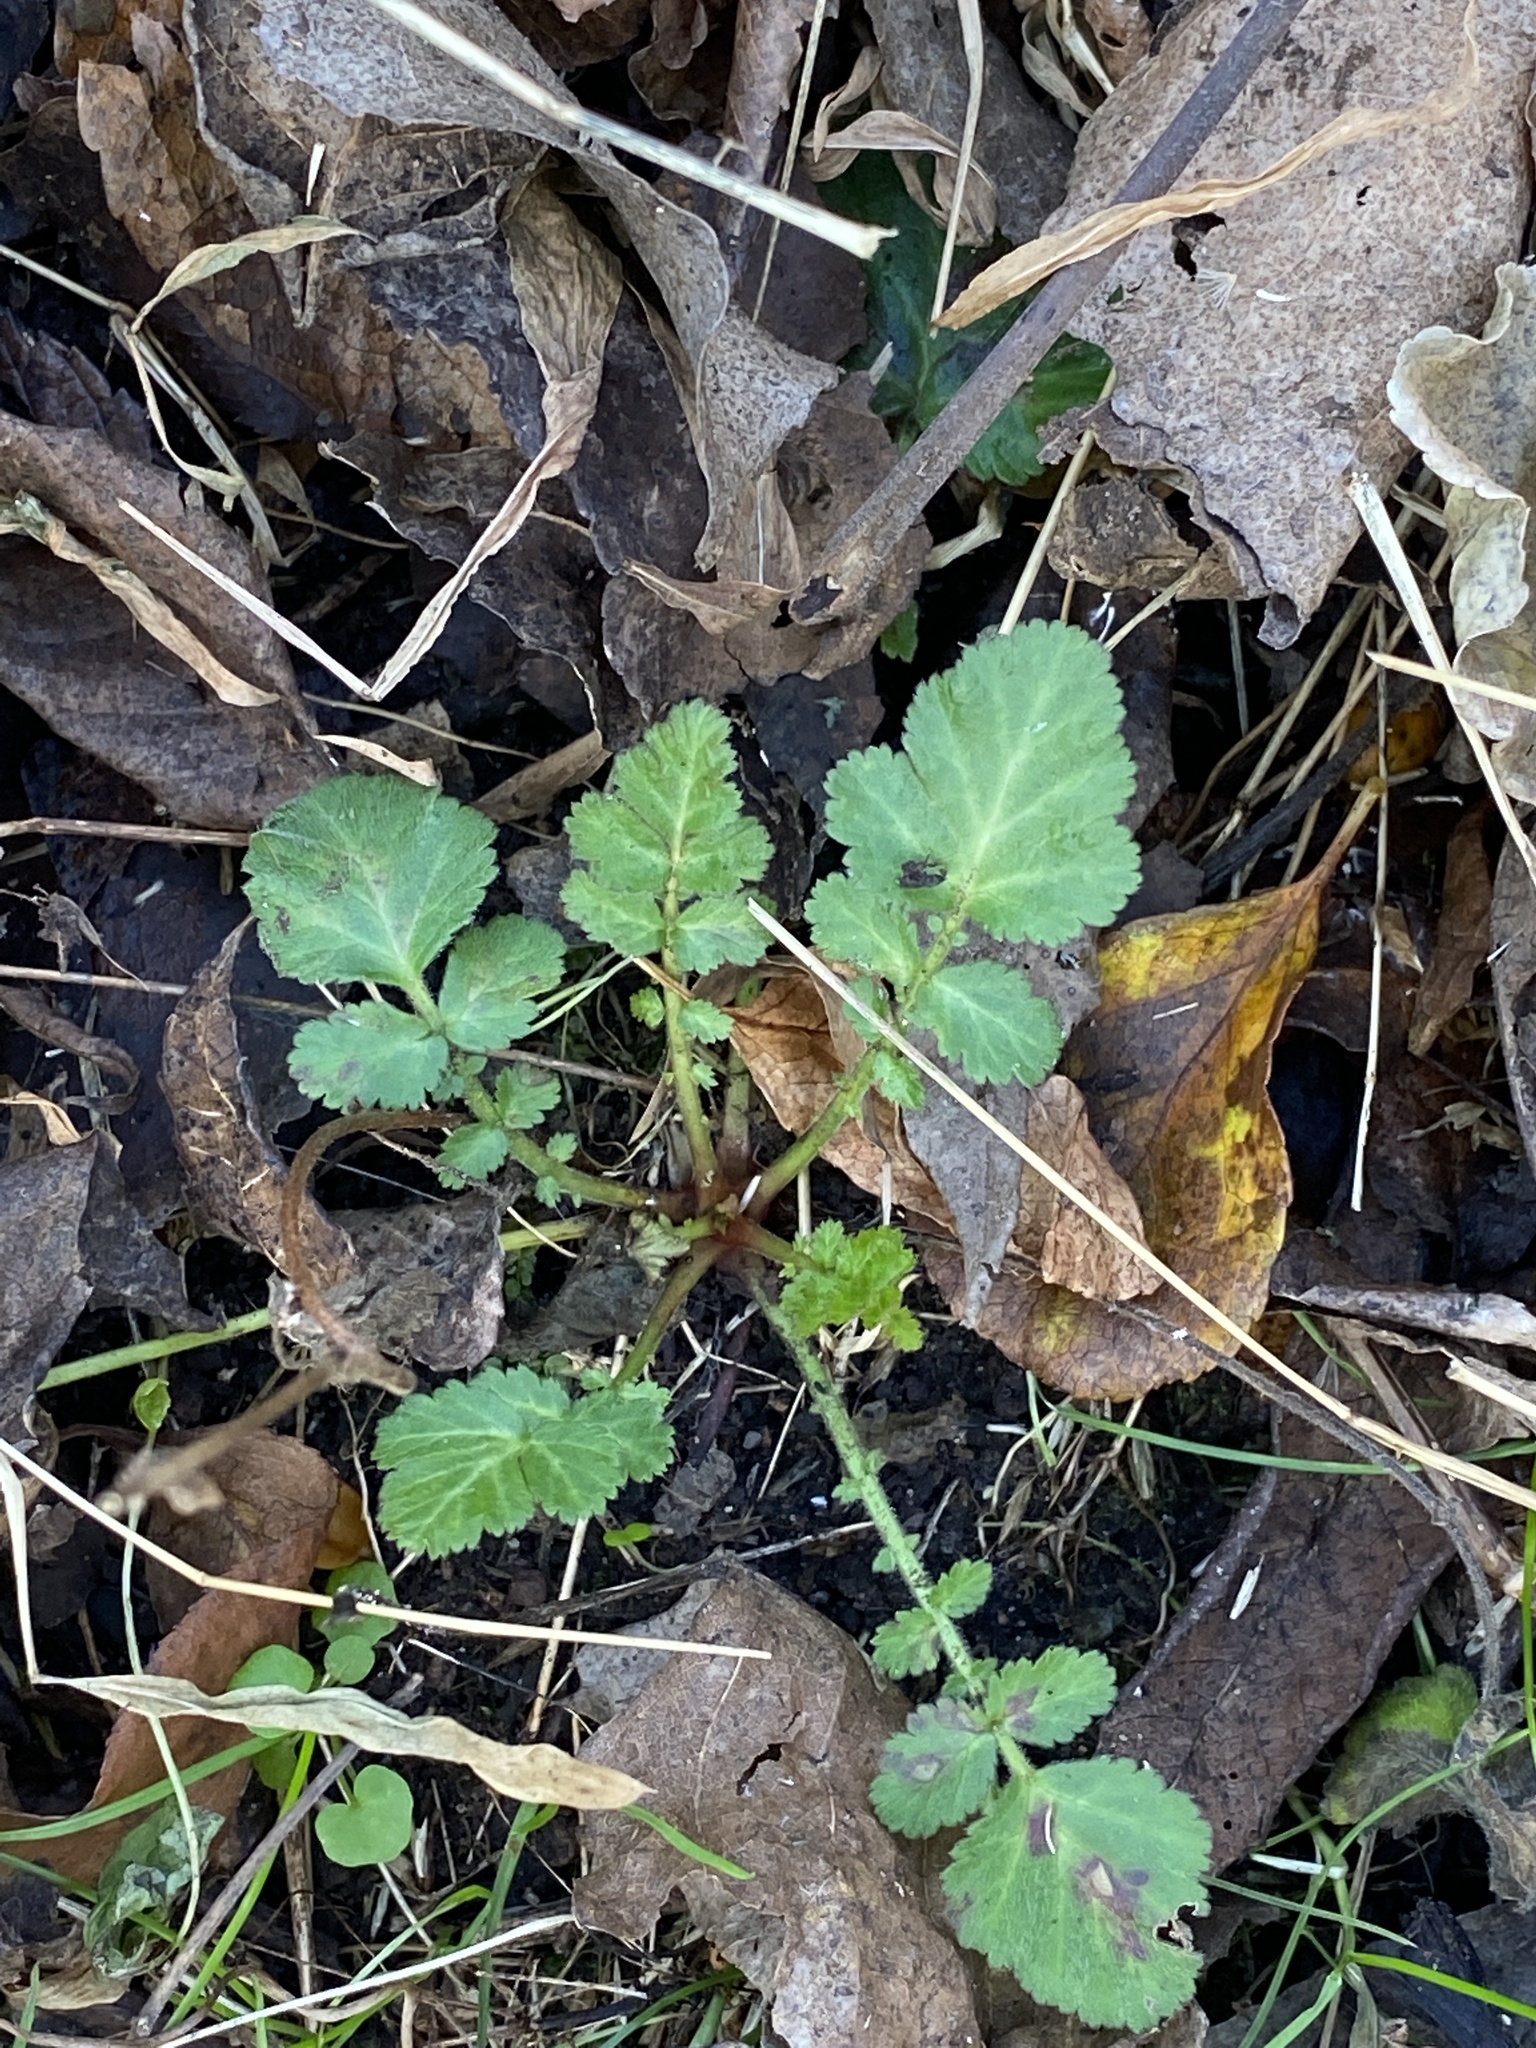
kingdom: Plantae
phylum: Tracheophyta
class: Magnoliopsida
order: Rosales
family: Rosaceae
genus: Geum
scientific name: Geum canadense
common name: White avens
